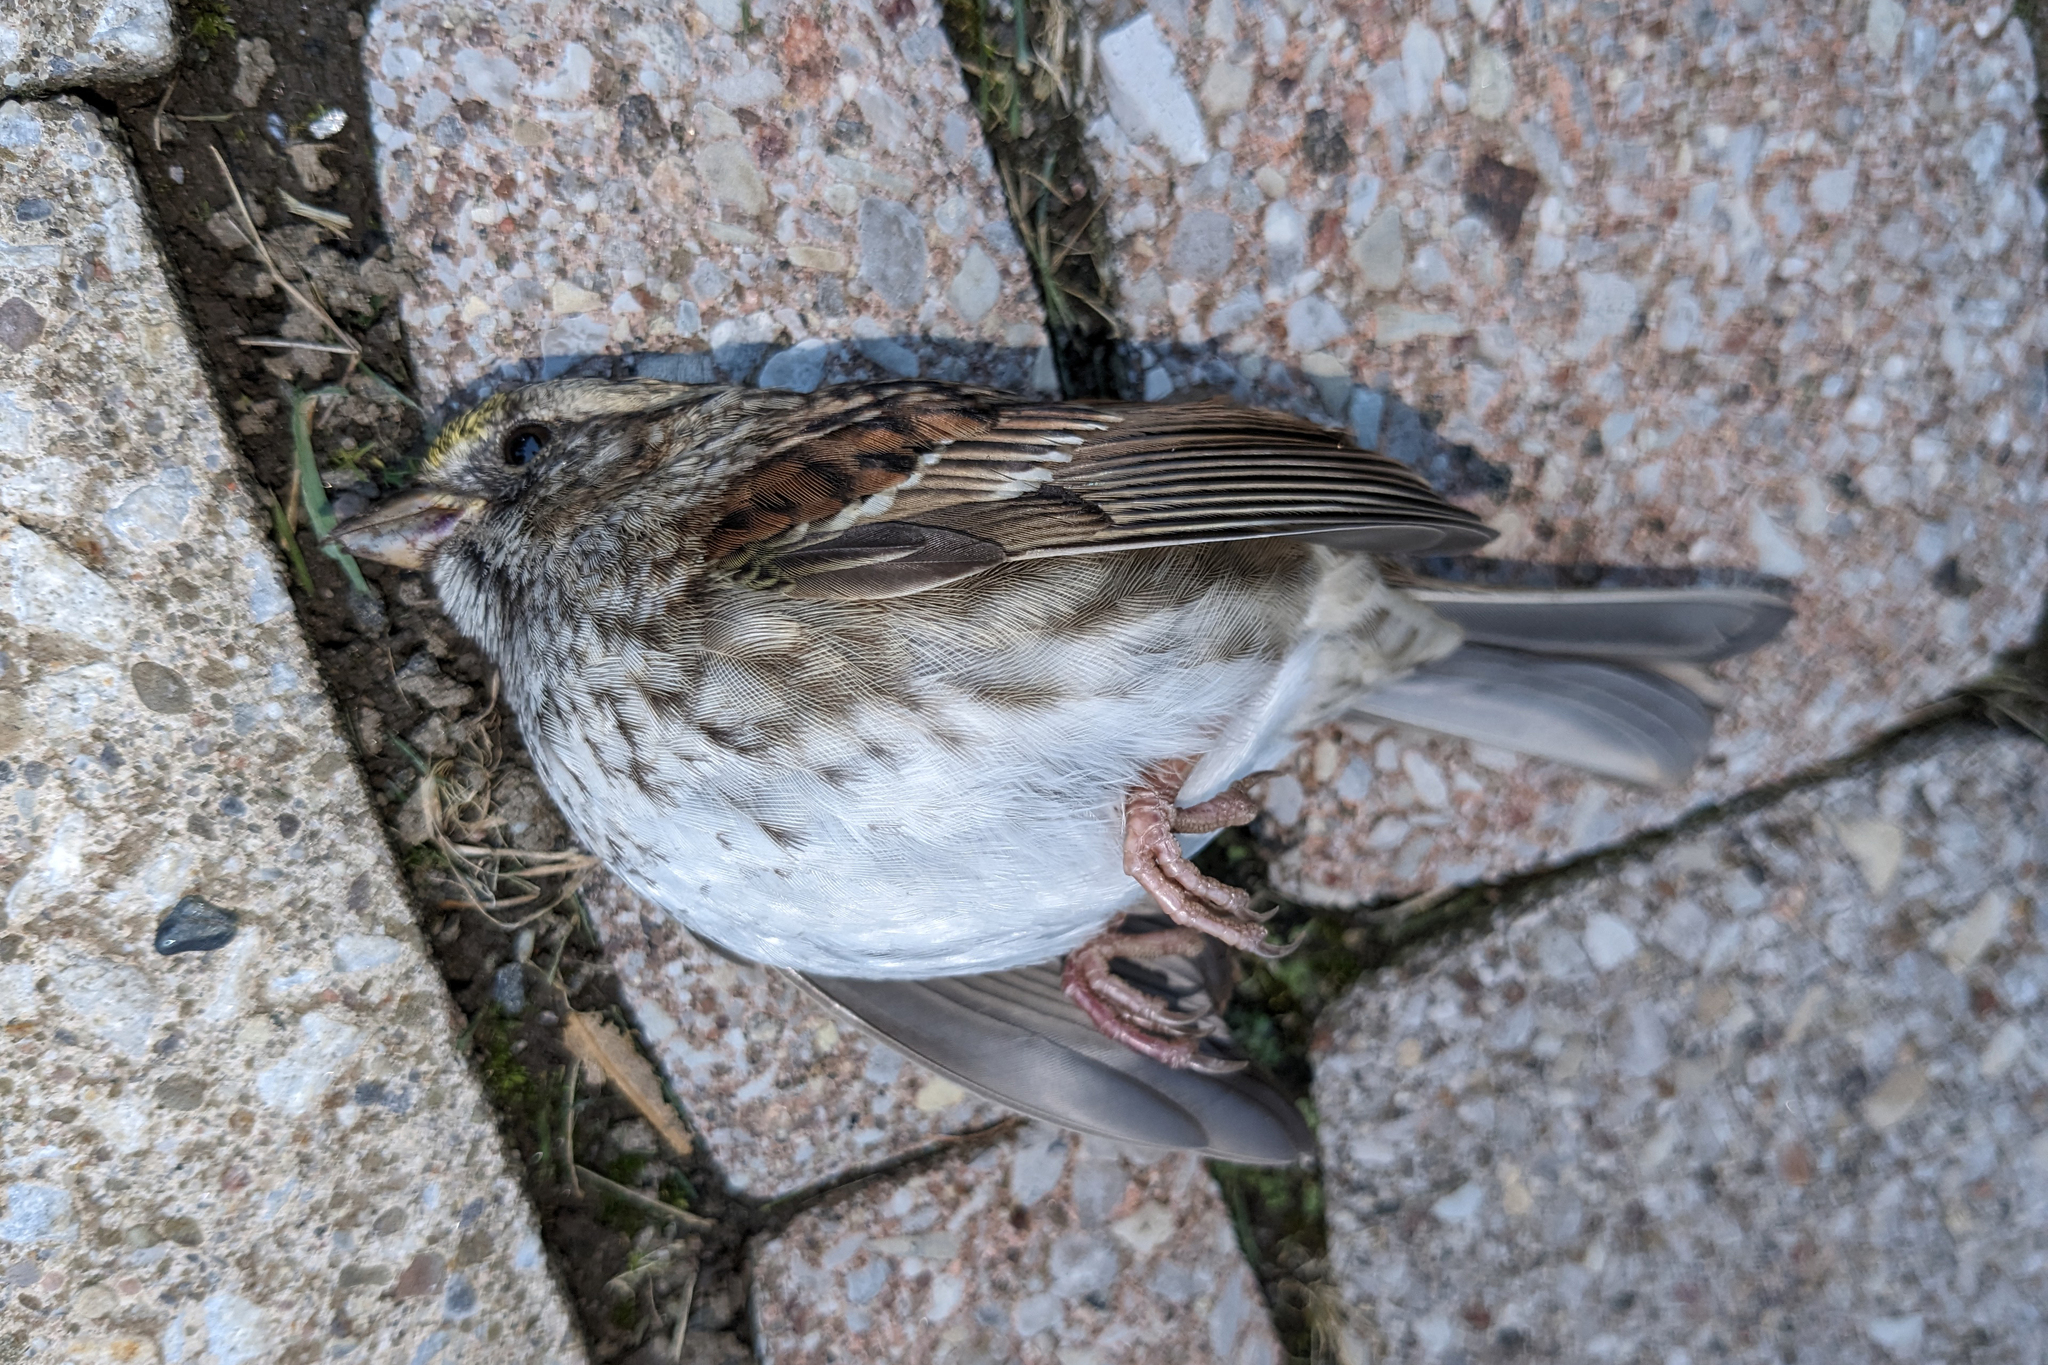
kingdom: Animalia
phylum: Chordata
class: Aves
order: Passeriformes
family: Passerellidae
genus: Zonotrichia
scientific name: Zonotrichia albicollis
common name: White-throated sparrow
